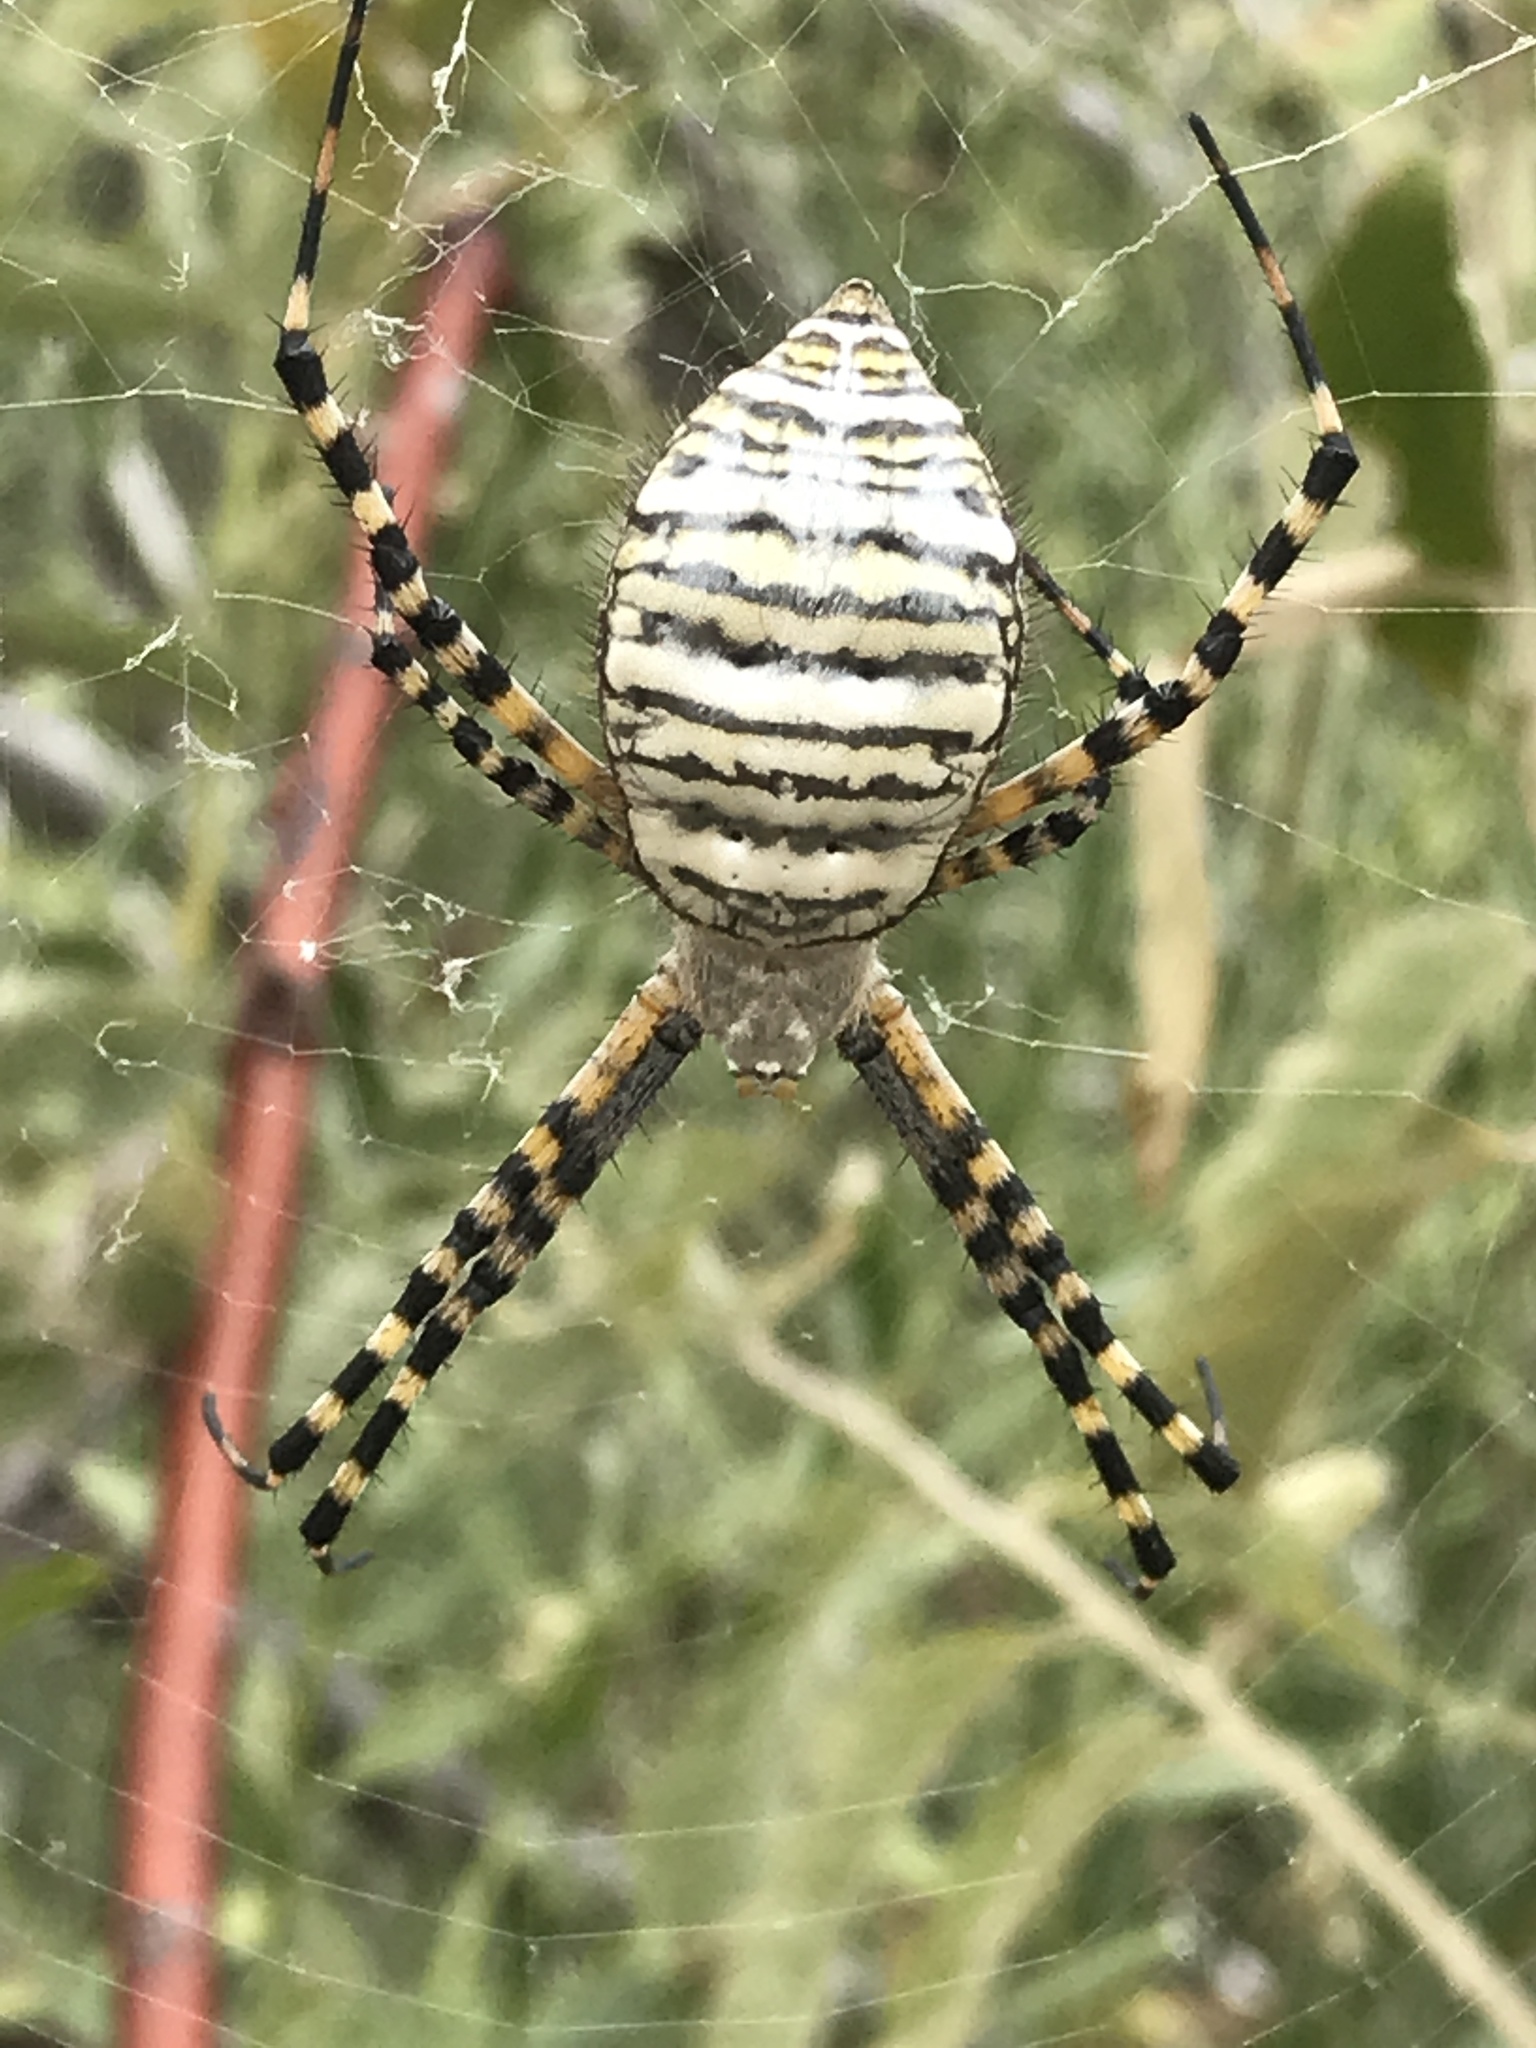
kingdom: Animalia
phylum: Arthropoda
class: Arachnida
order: Araneae
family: Araneidae
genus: Argiope
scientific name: Argiope trifasciata
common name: Banded garden spider
